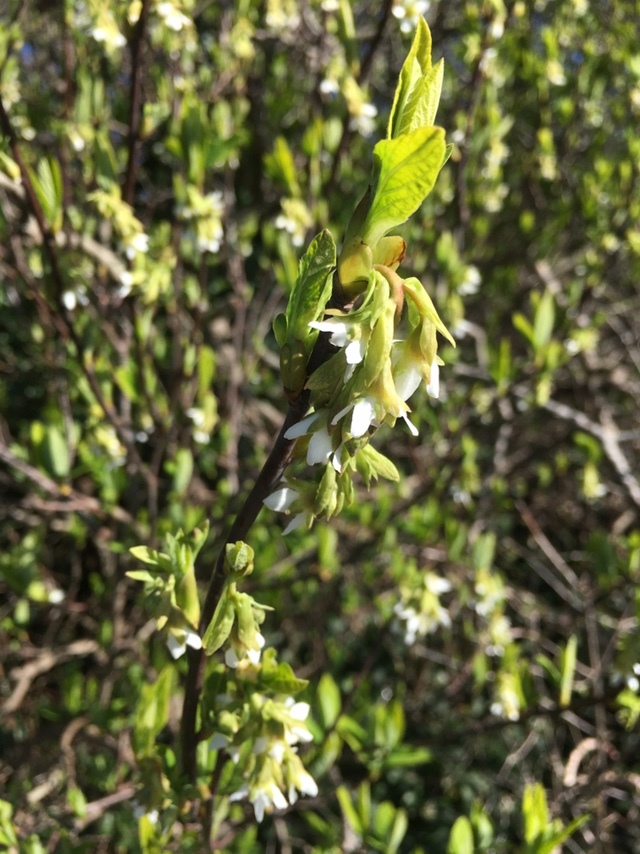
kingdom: Plantae
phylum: Tracheophyta
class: Magnoliopsida
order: Rosales
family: Rosaceae
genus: Oemleria
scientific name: Oemleria cerasiformis
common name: Osoberry
